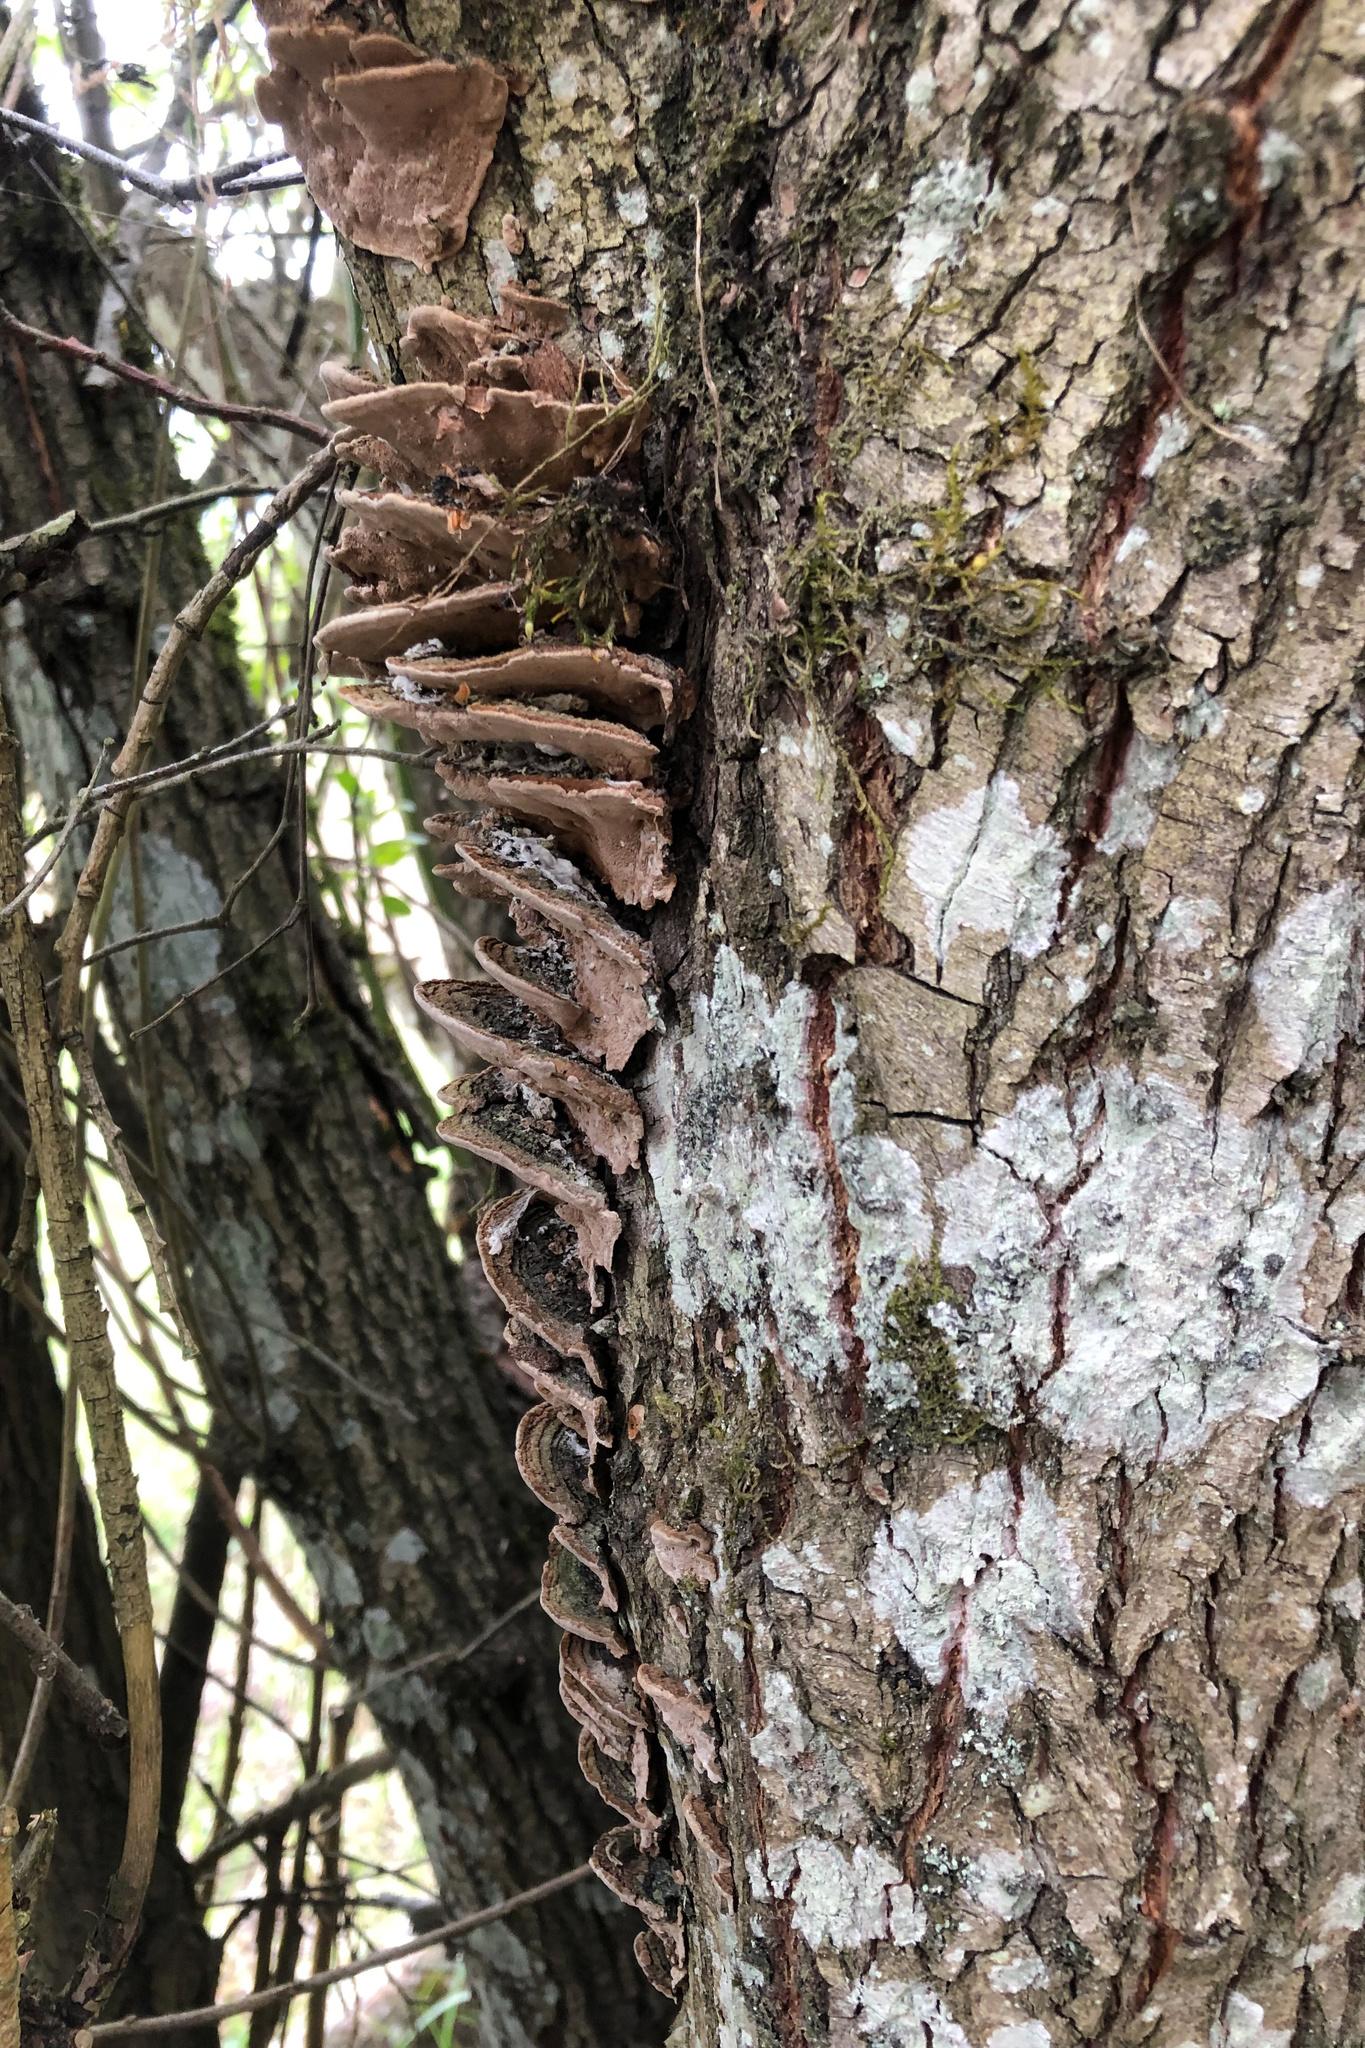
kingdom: Fungi
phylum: Basidiomycota
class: Agaricomycetes
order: Hymenochaetales
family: Hymenochaetaceae
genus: Phellinopsis
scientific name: Phellinopsis conchata
